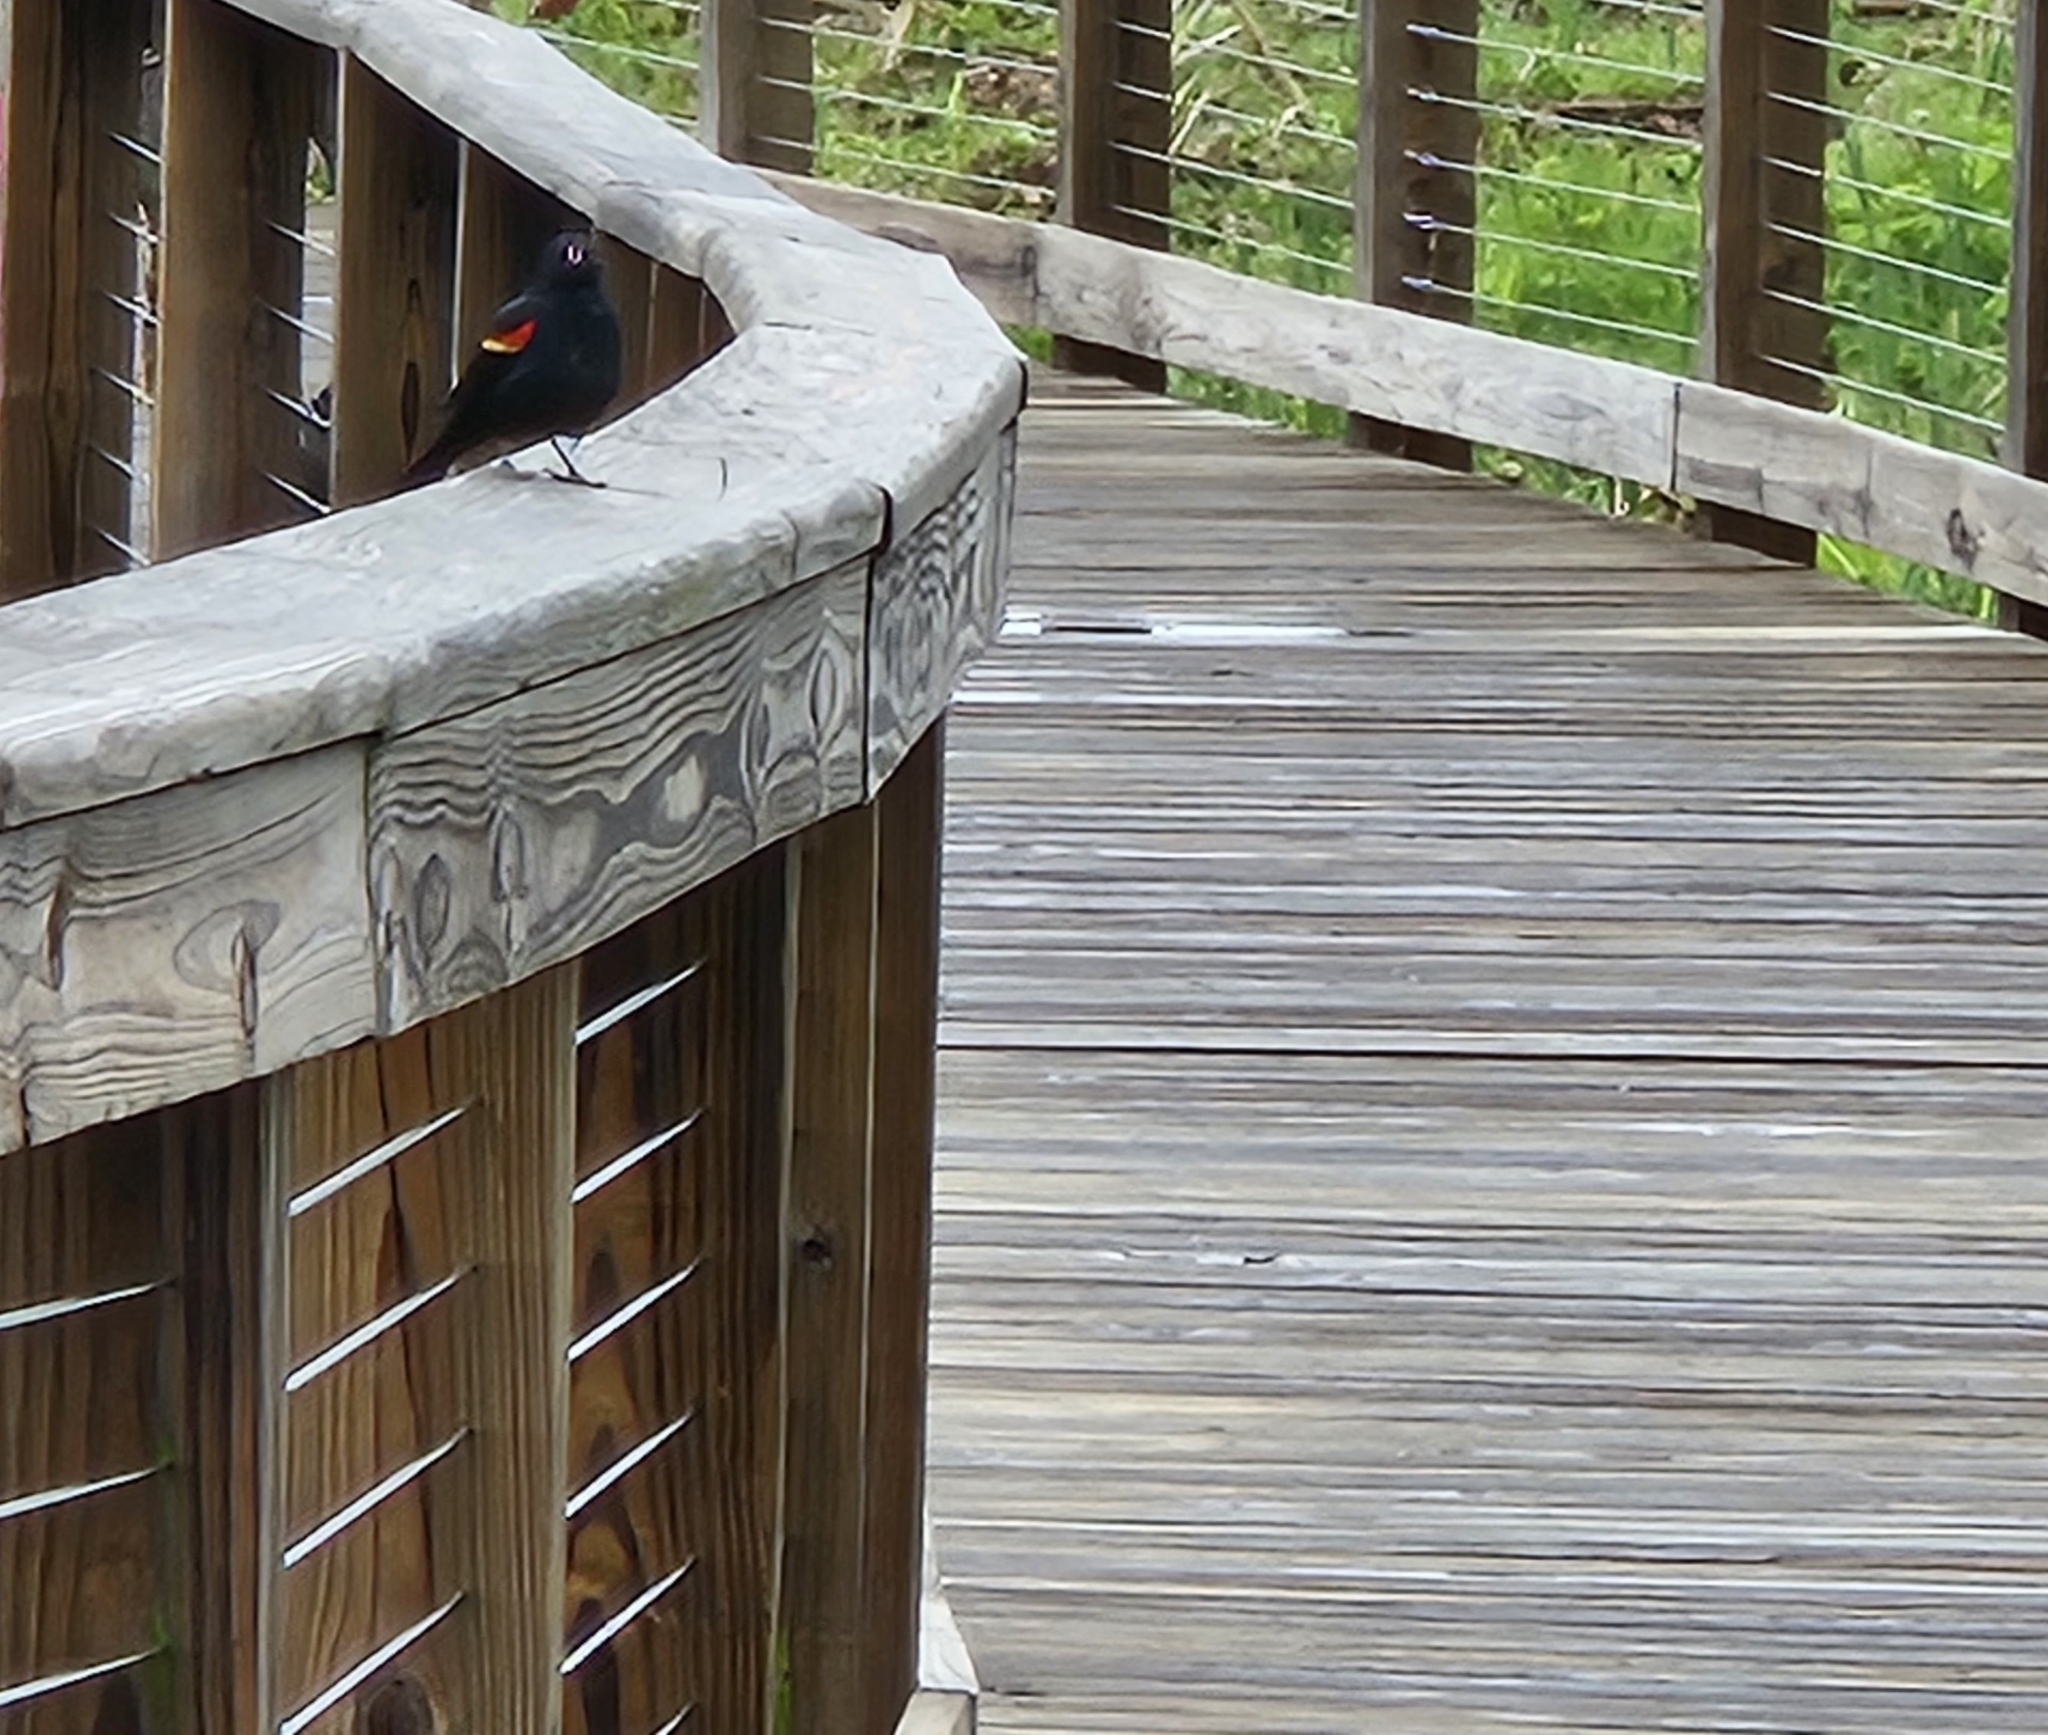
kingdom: Animalia
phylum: Chordata
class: Aves
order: Passeriformes
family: Icteridae
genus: Agelaius
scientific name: Agelaius phoeniceus
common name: Red-winged blackbird
